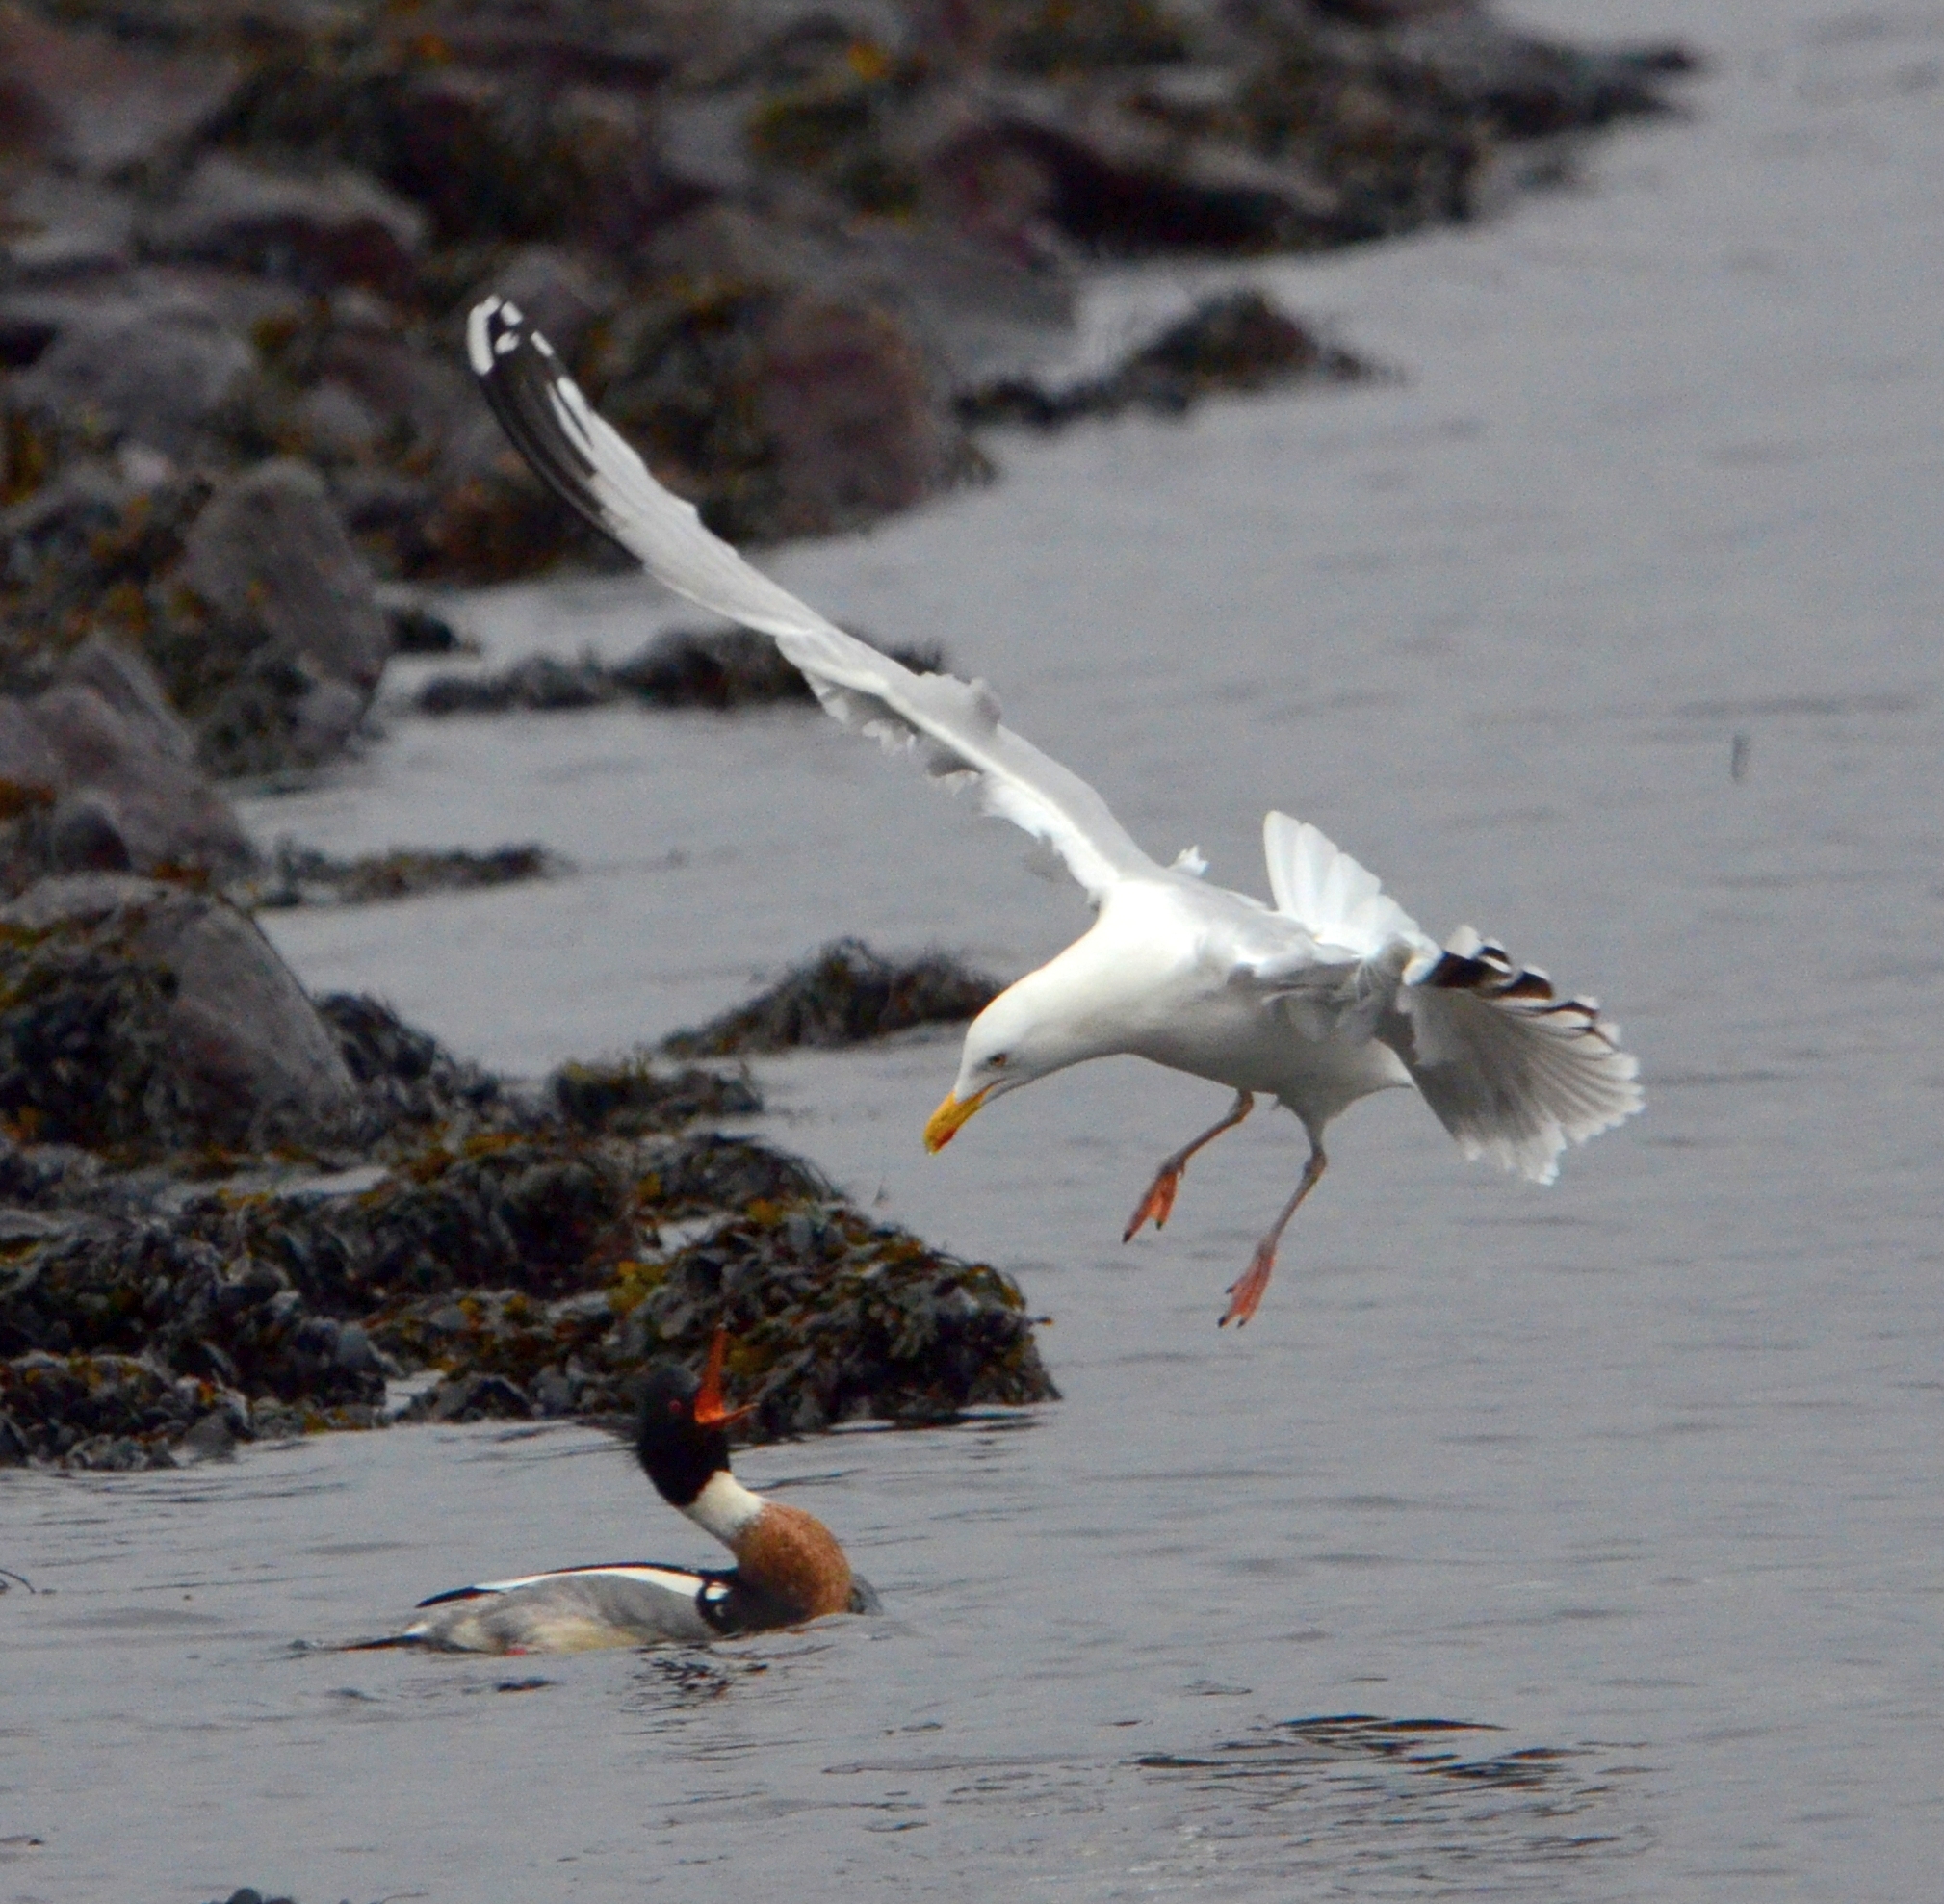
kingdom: Animalia
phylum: Chordata
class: Aves
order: Anseriformes
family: Anatidae
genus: Mergus
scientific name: Mergus serrator
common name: Red-breasted merganser
